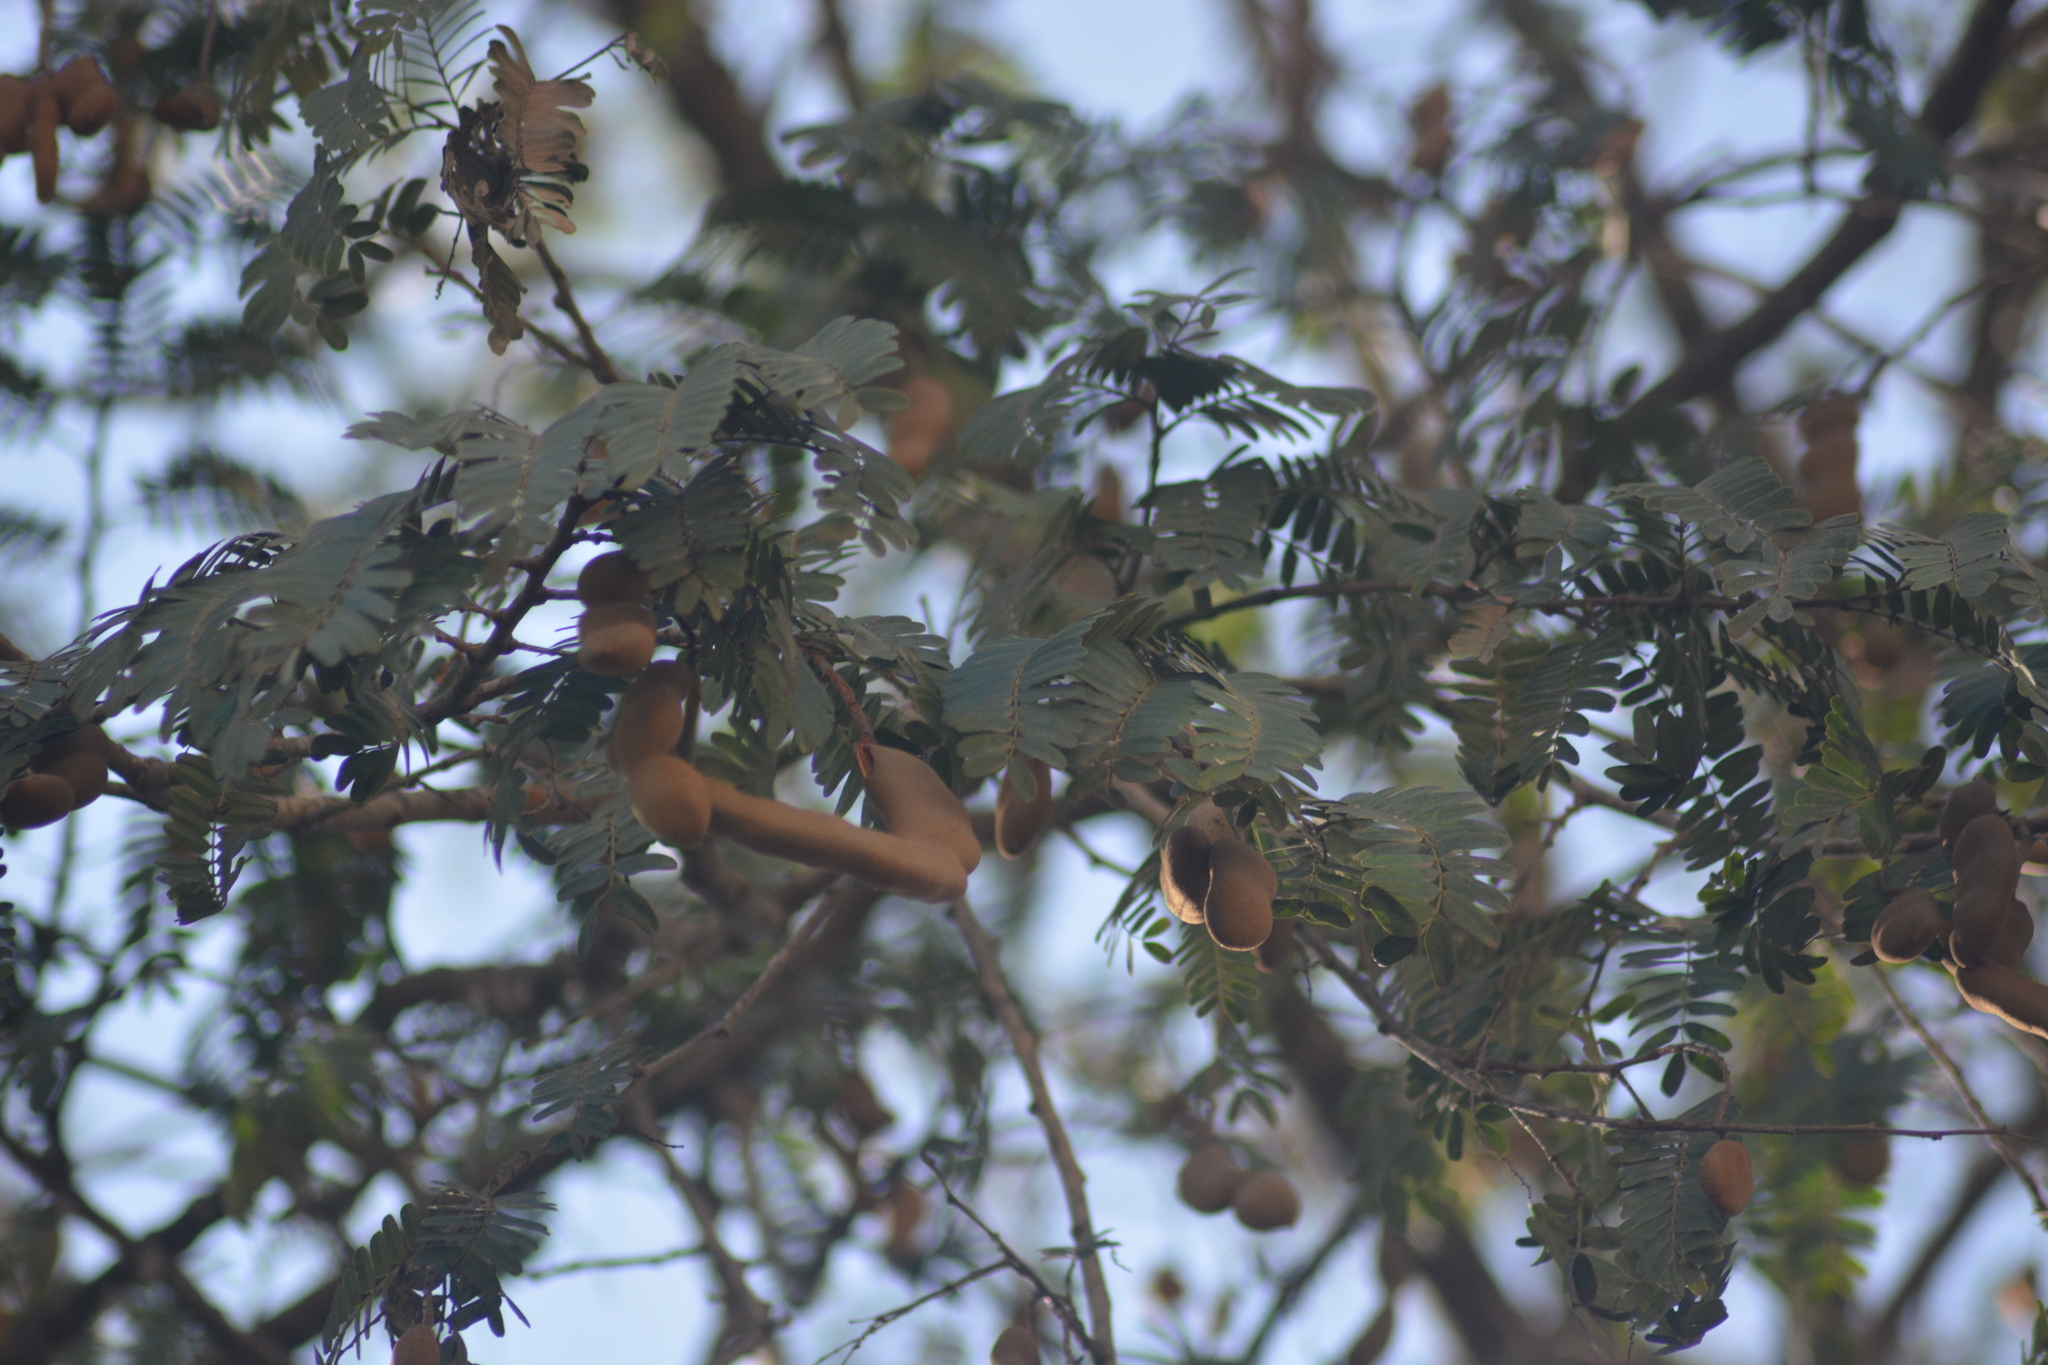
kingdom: Plantae
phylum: Tracheophyta
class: Magnoliopsida
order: Fabales
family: Fabaceae
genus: Tamarindus
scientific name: Tamarindus indica
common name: Tamarind
